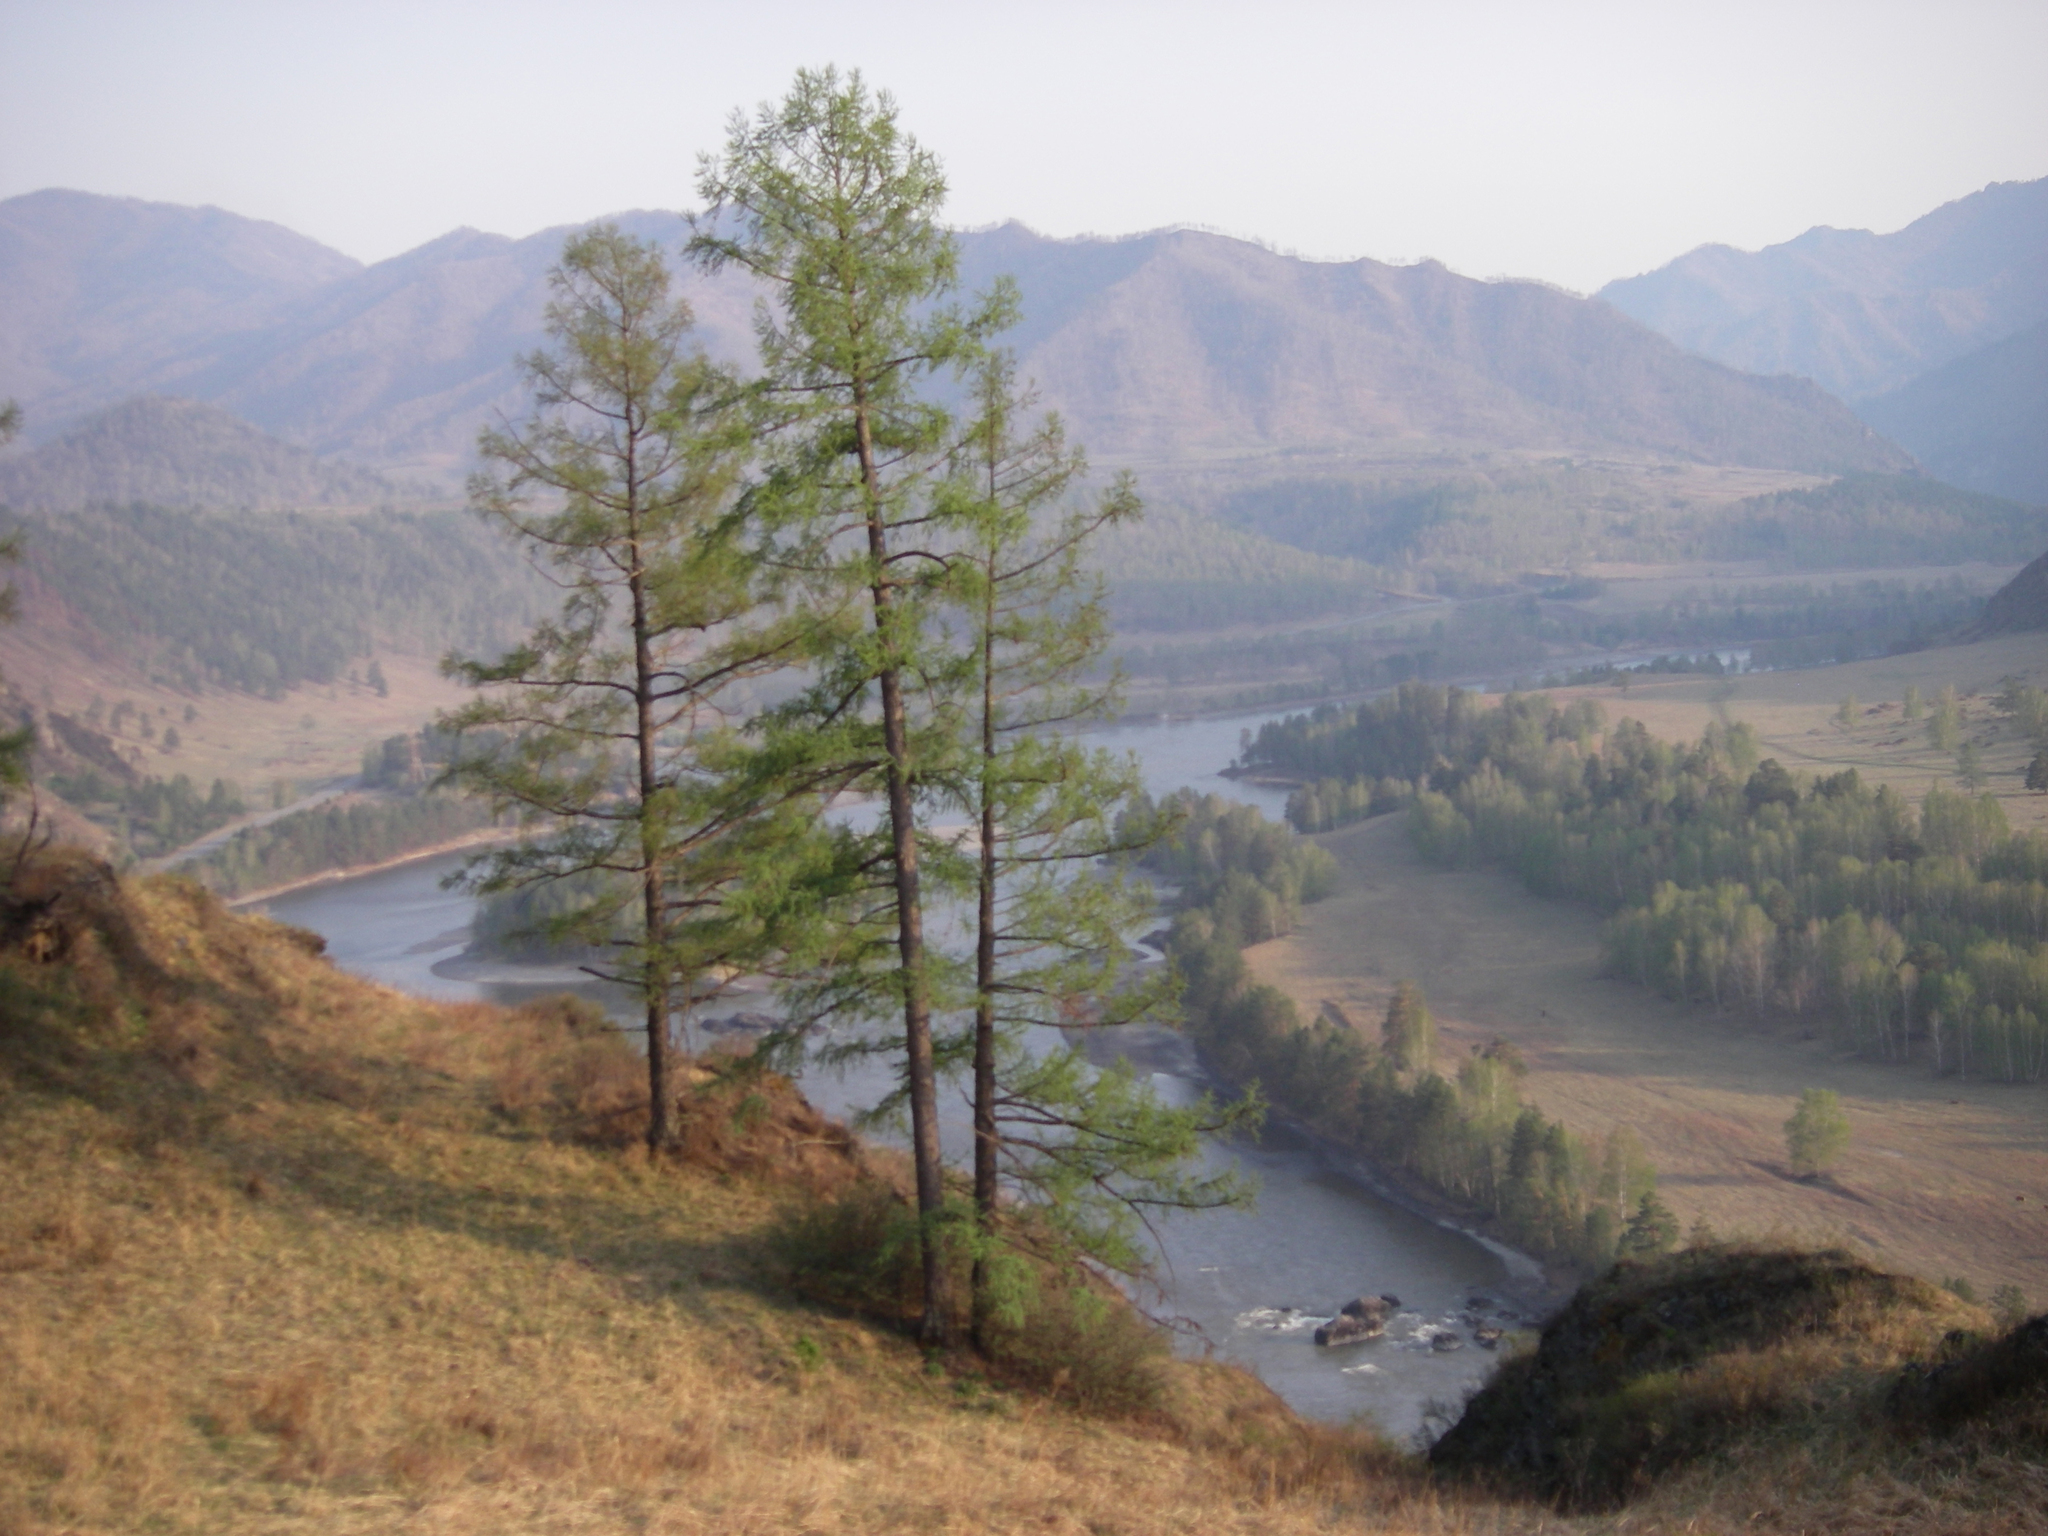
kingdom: Plantae
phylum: Tracheophyta
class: Pinopsida
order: Pinales
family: Pinaceae
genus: Larix
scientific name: Larix sibirica
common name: Siberian larch
